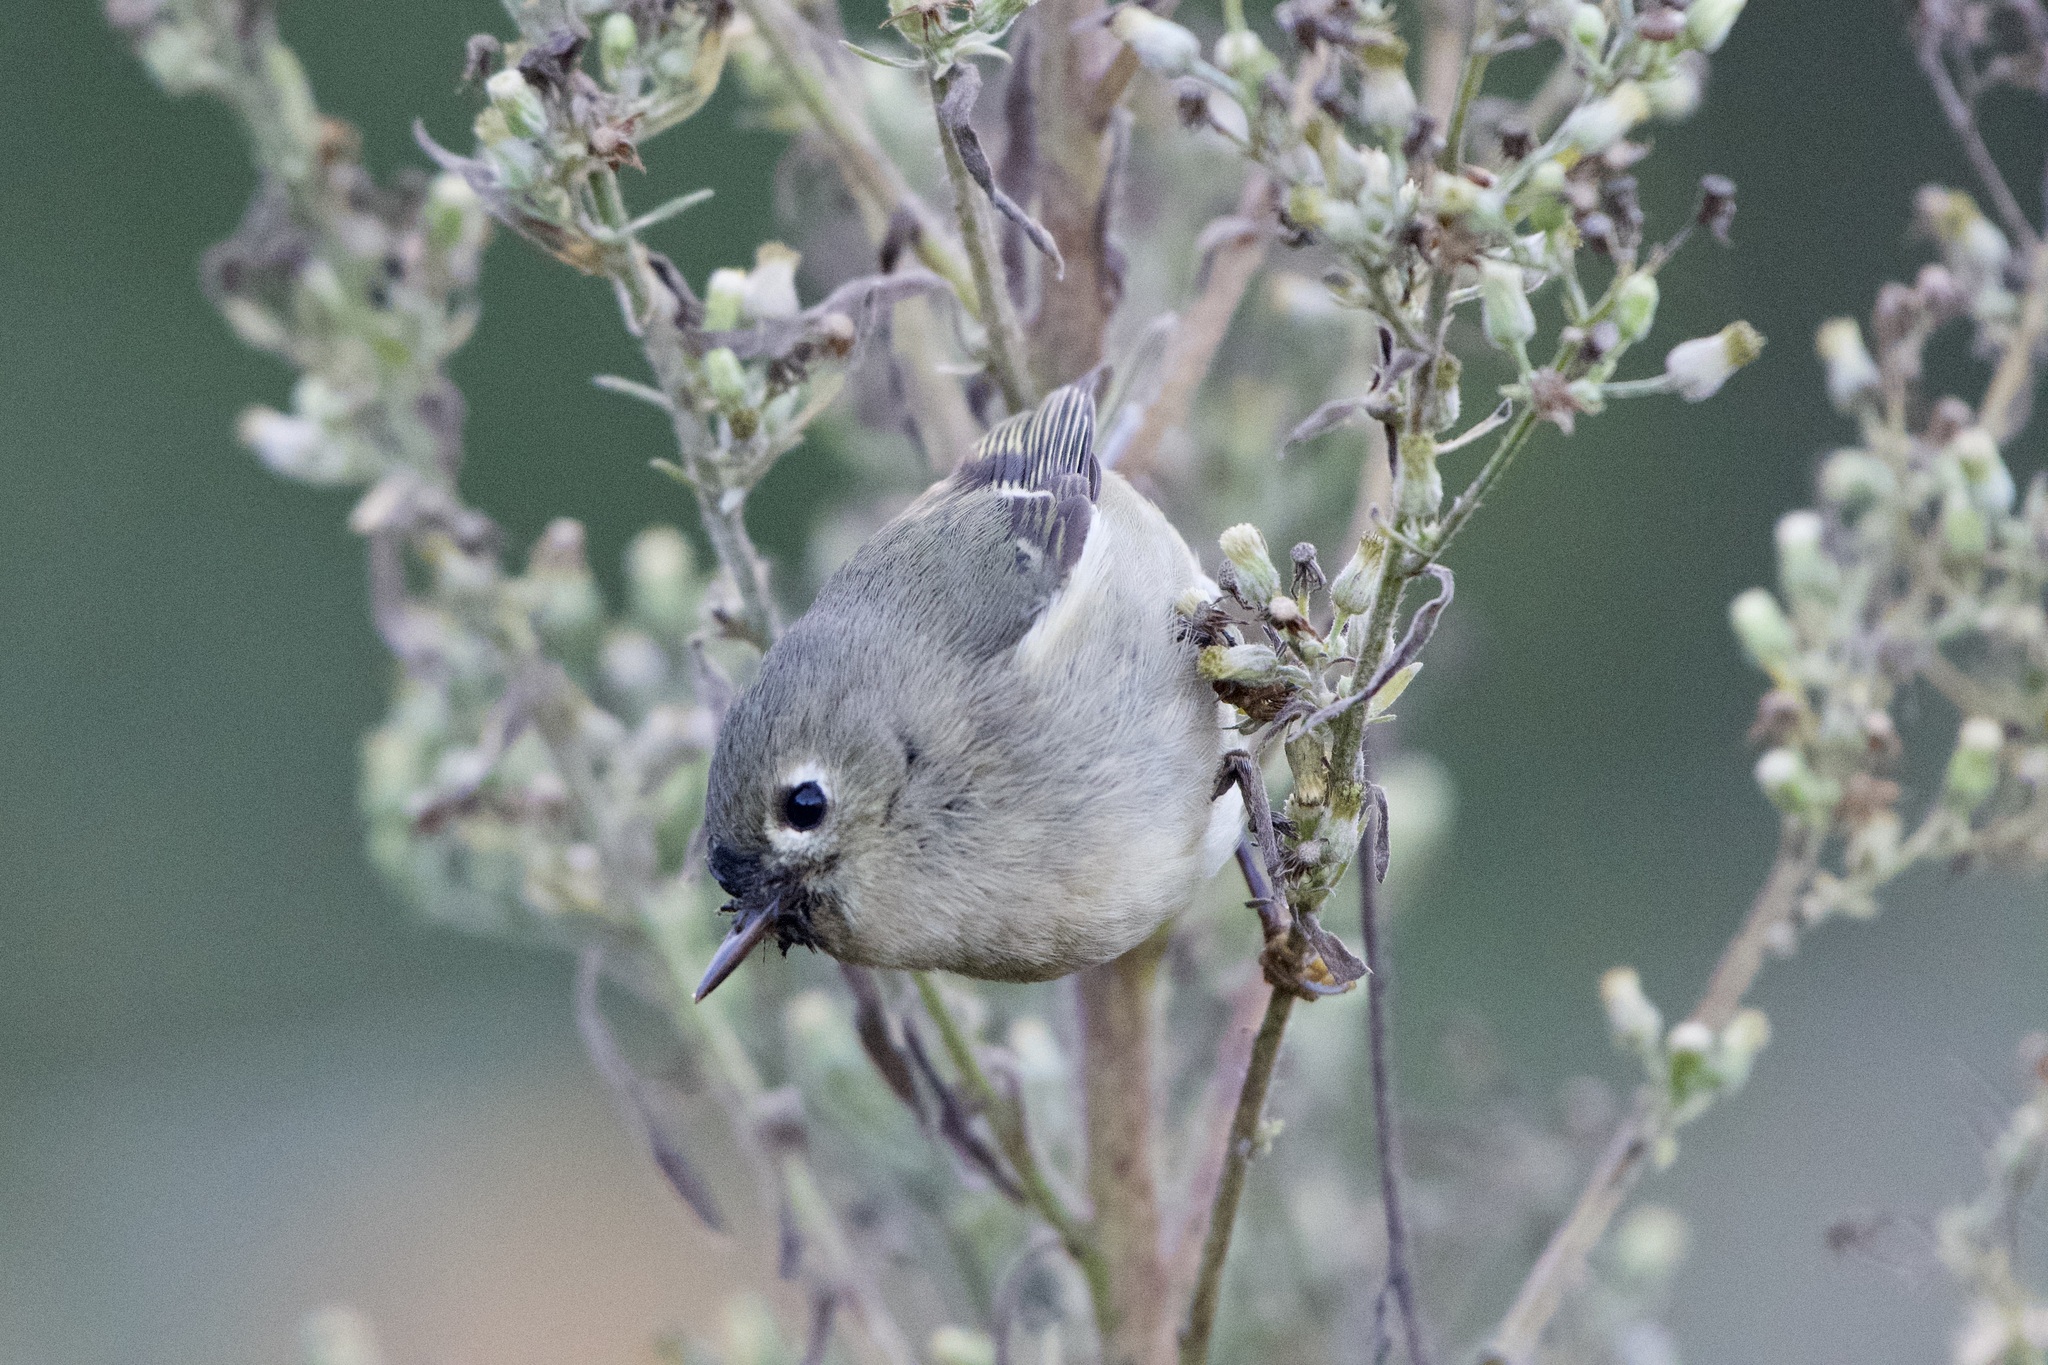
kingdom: Animalia
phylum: Chordata
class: Aves
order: Passeriformes
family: Regulidae
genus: Regulus
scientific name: Regulus calendula
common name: Ruby-crowned kinglet
